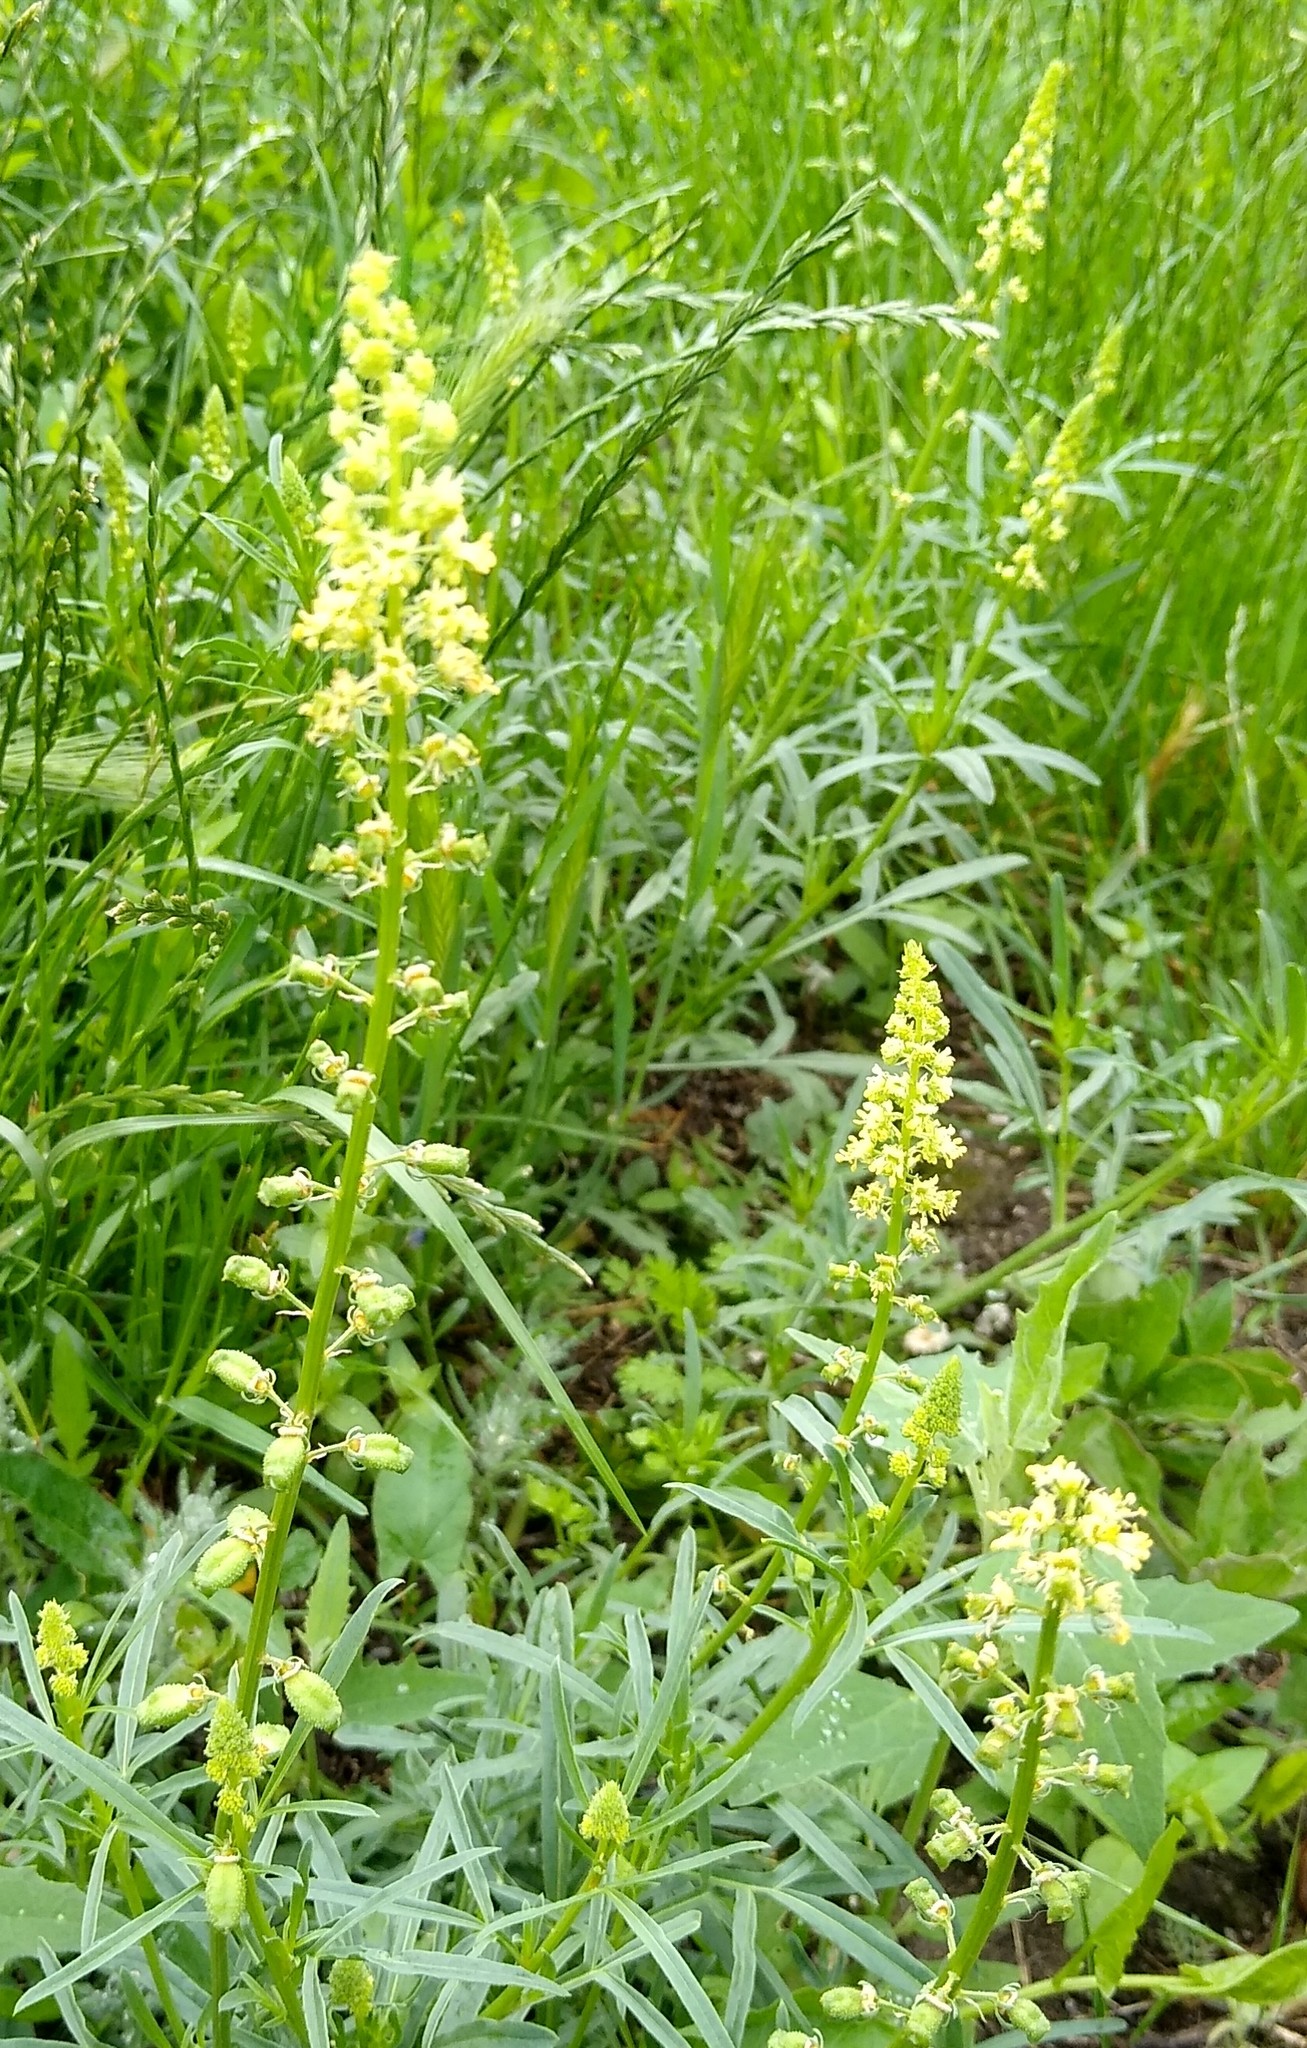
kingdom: Plantae
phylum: Tracheophyta
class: Magnoliopsida
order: Brassicales
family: Resedaceae
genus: Reseda
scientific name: Reseda lutea
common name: Wild mignonette
